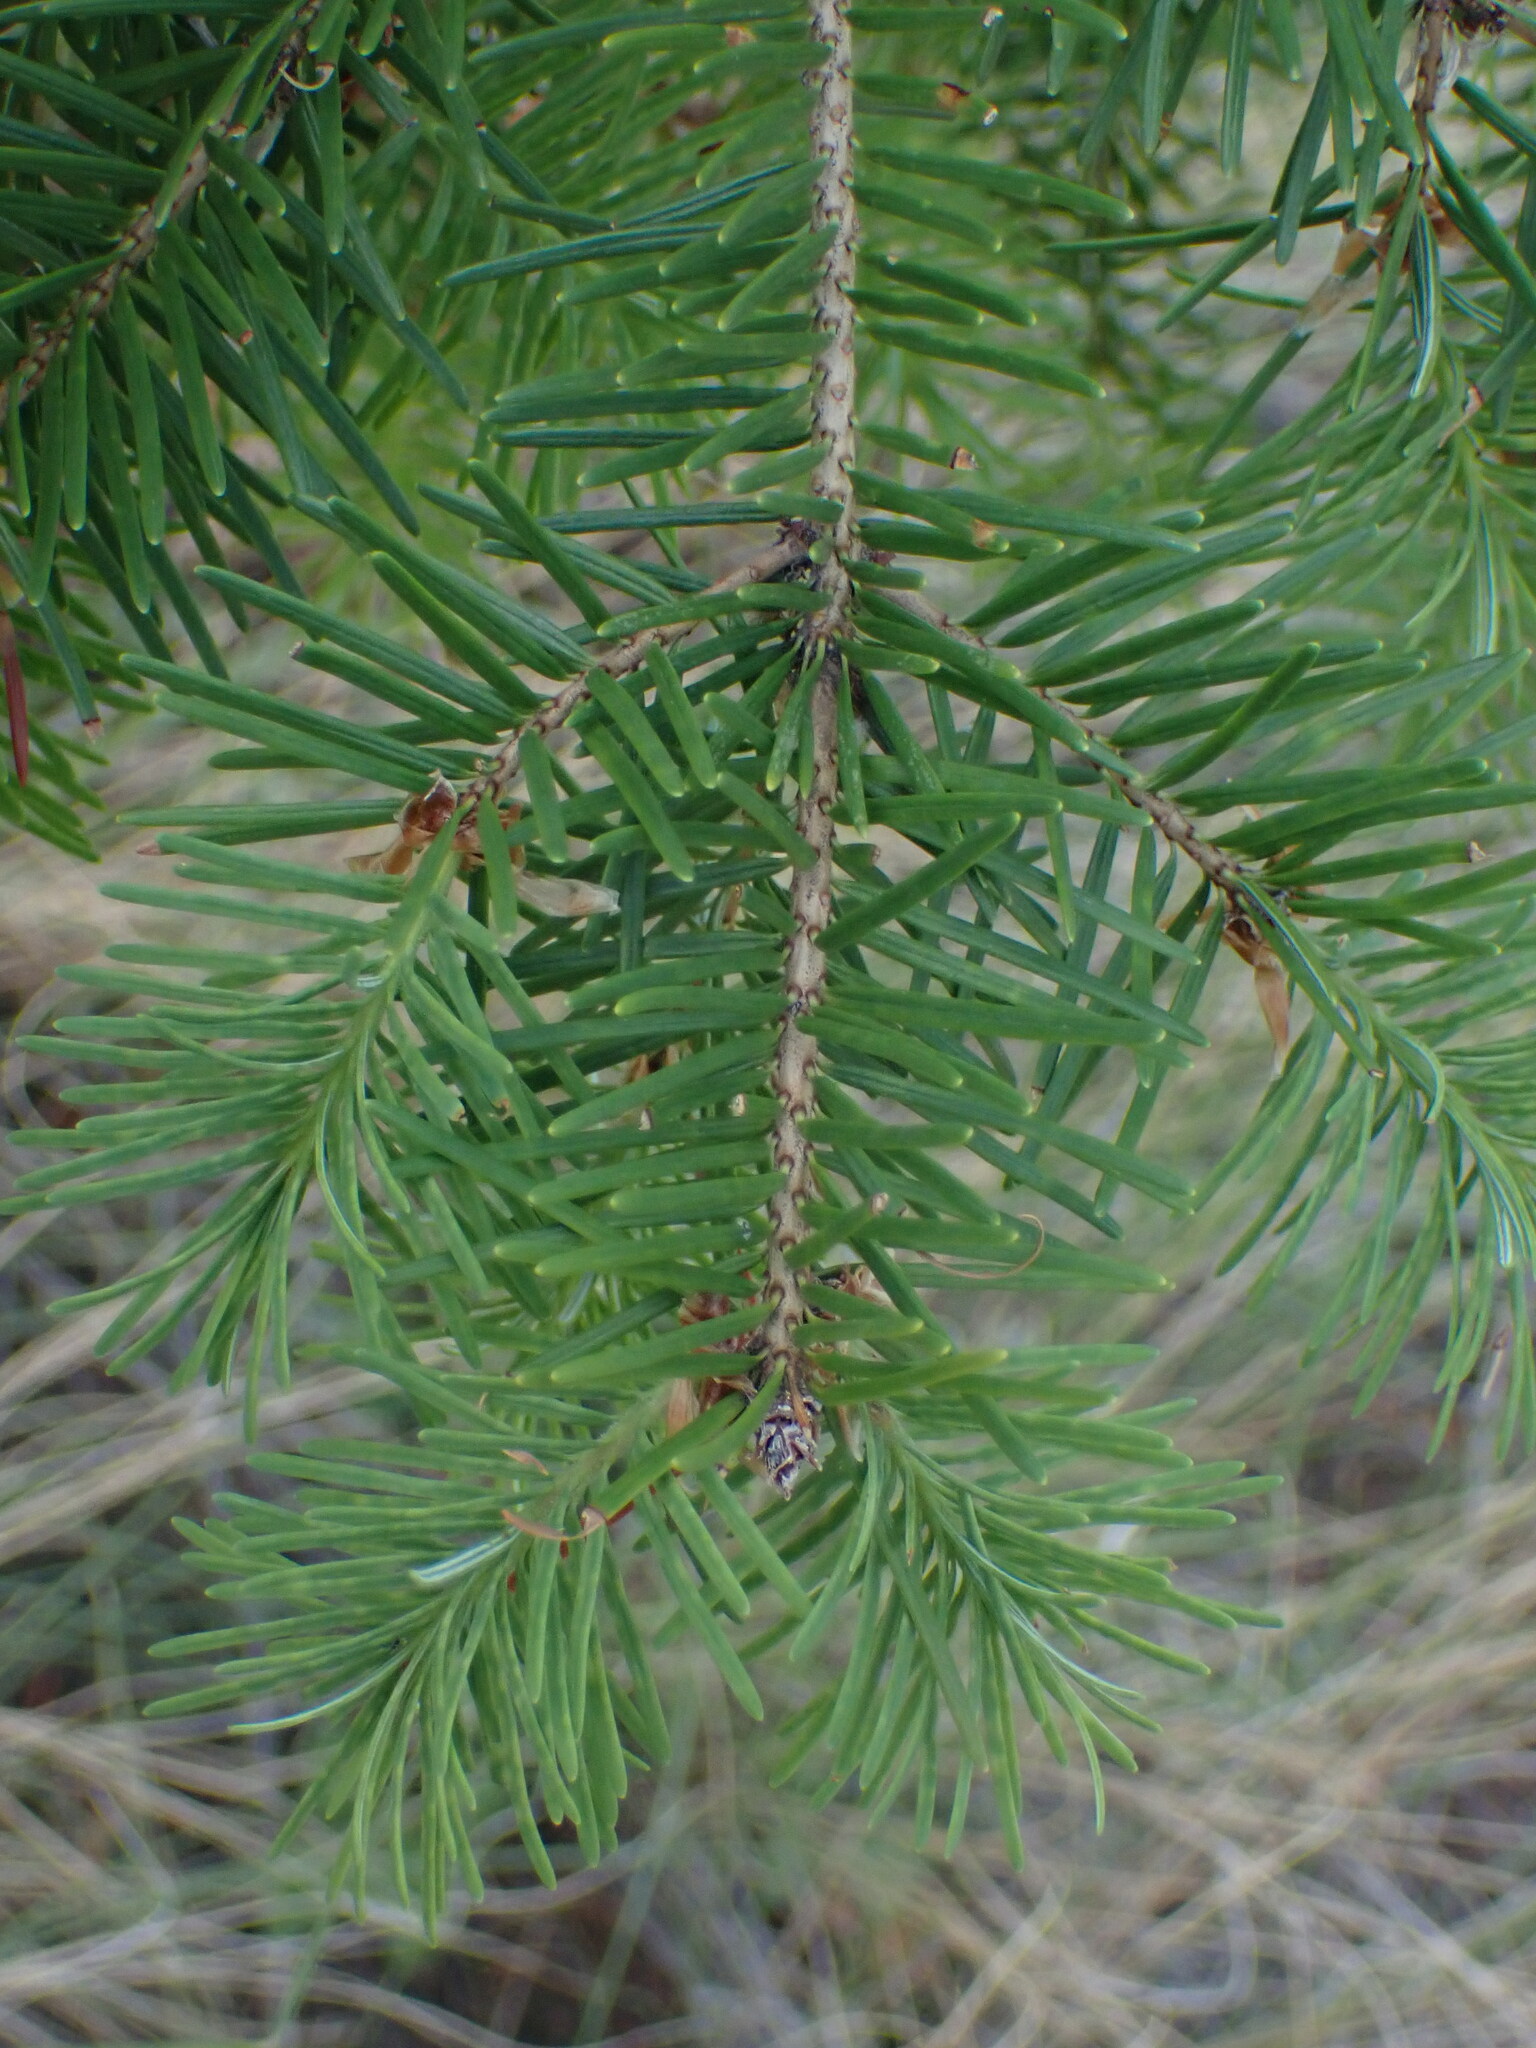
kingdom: Plantae
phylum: Tracheophyta
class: Pinopsida
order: Pinales
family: Pinaceae
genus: Pseudotsuga
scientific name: Pseudotsuga menziesii
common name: Douglas fir
